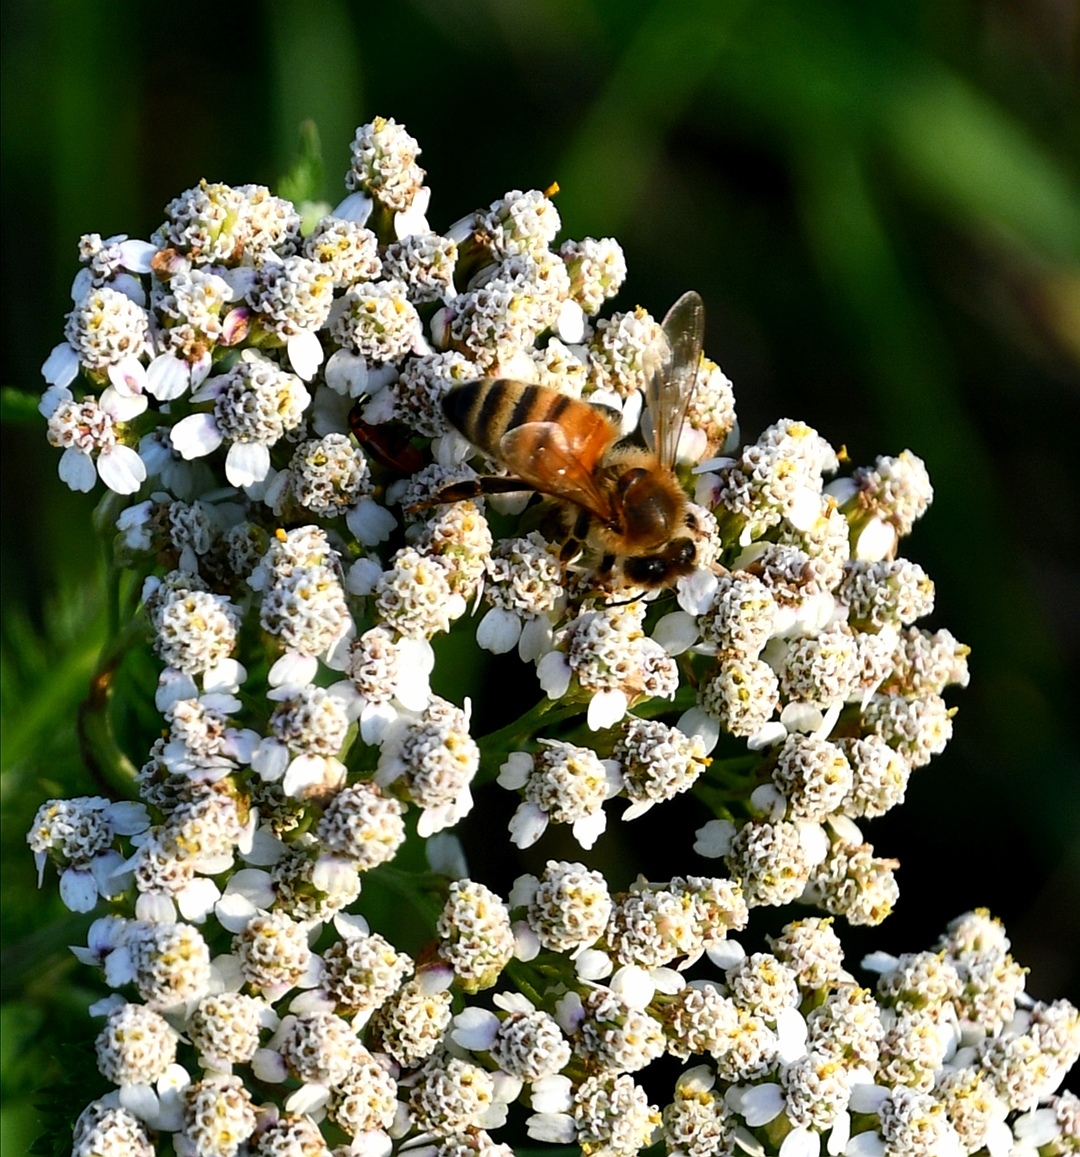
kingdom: Animalia
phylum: Arthropoda
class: Insecta
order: Hymenoptera
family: Apidae
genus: Apis
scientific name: Apis mellifera
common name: Honey bee
